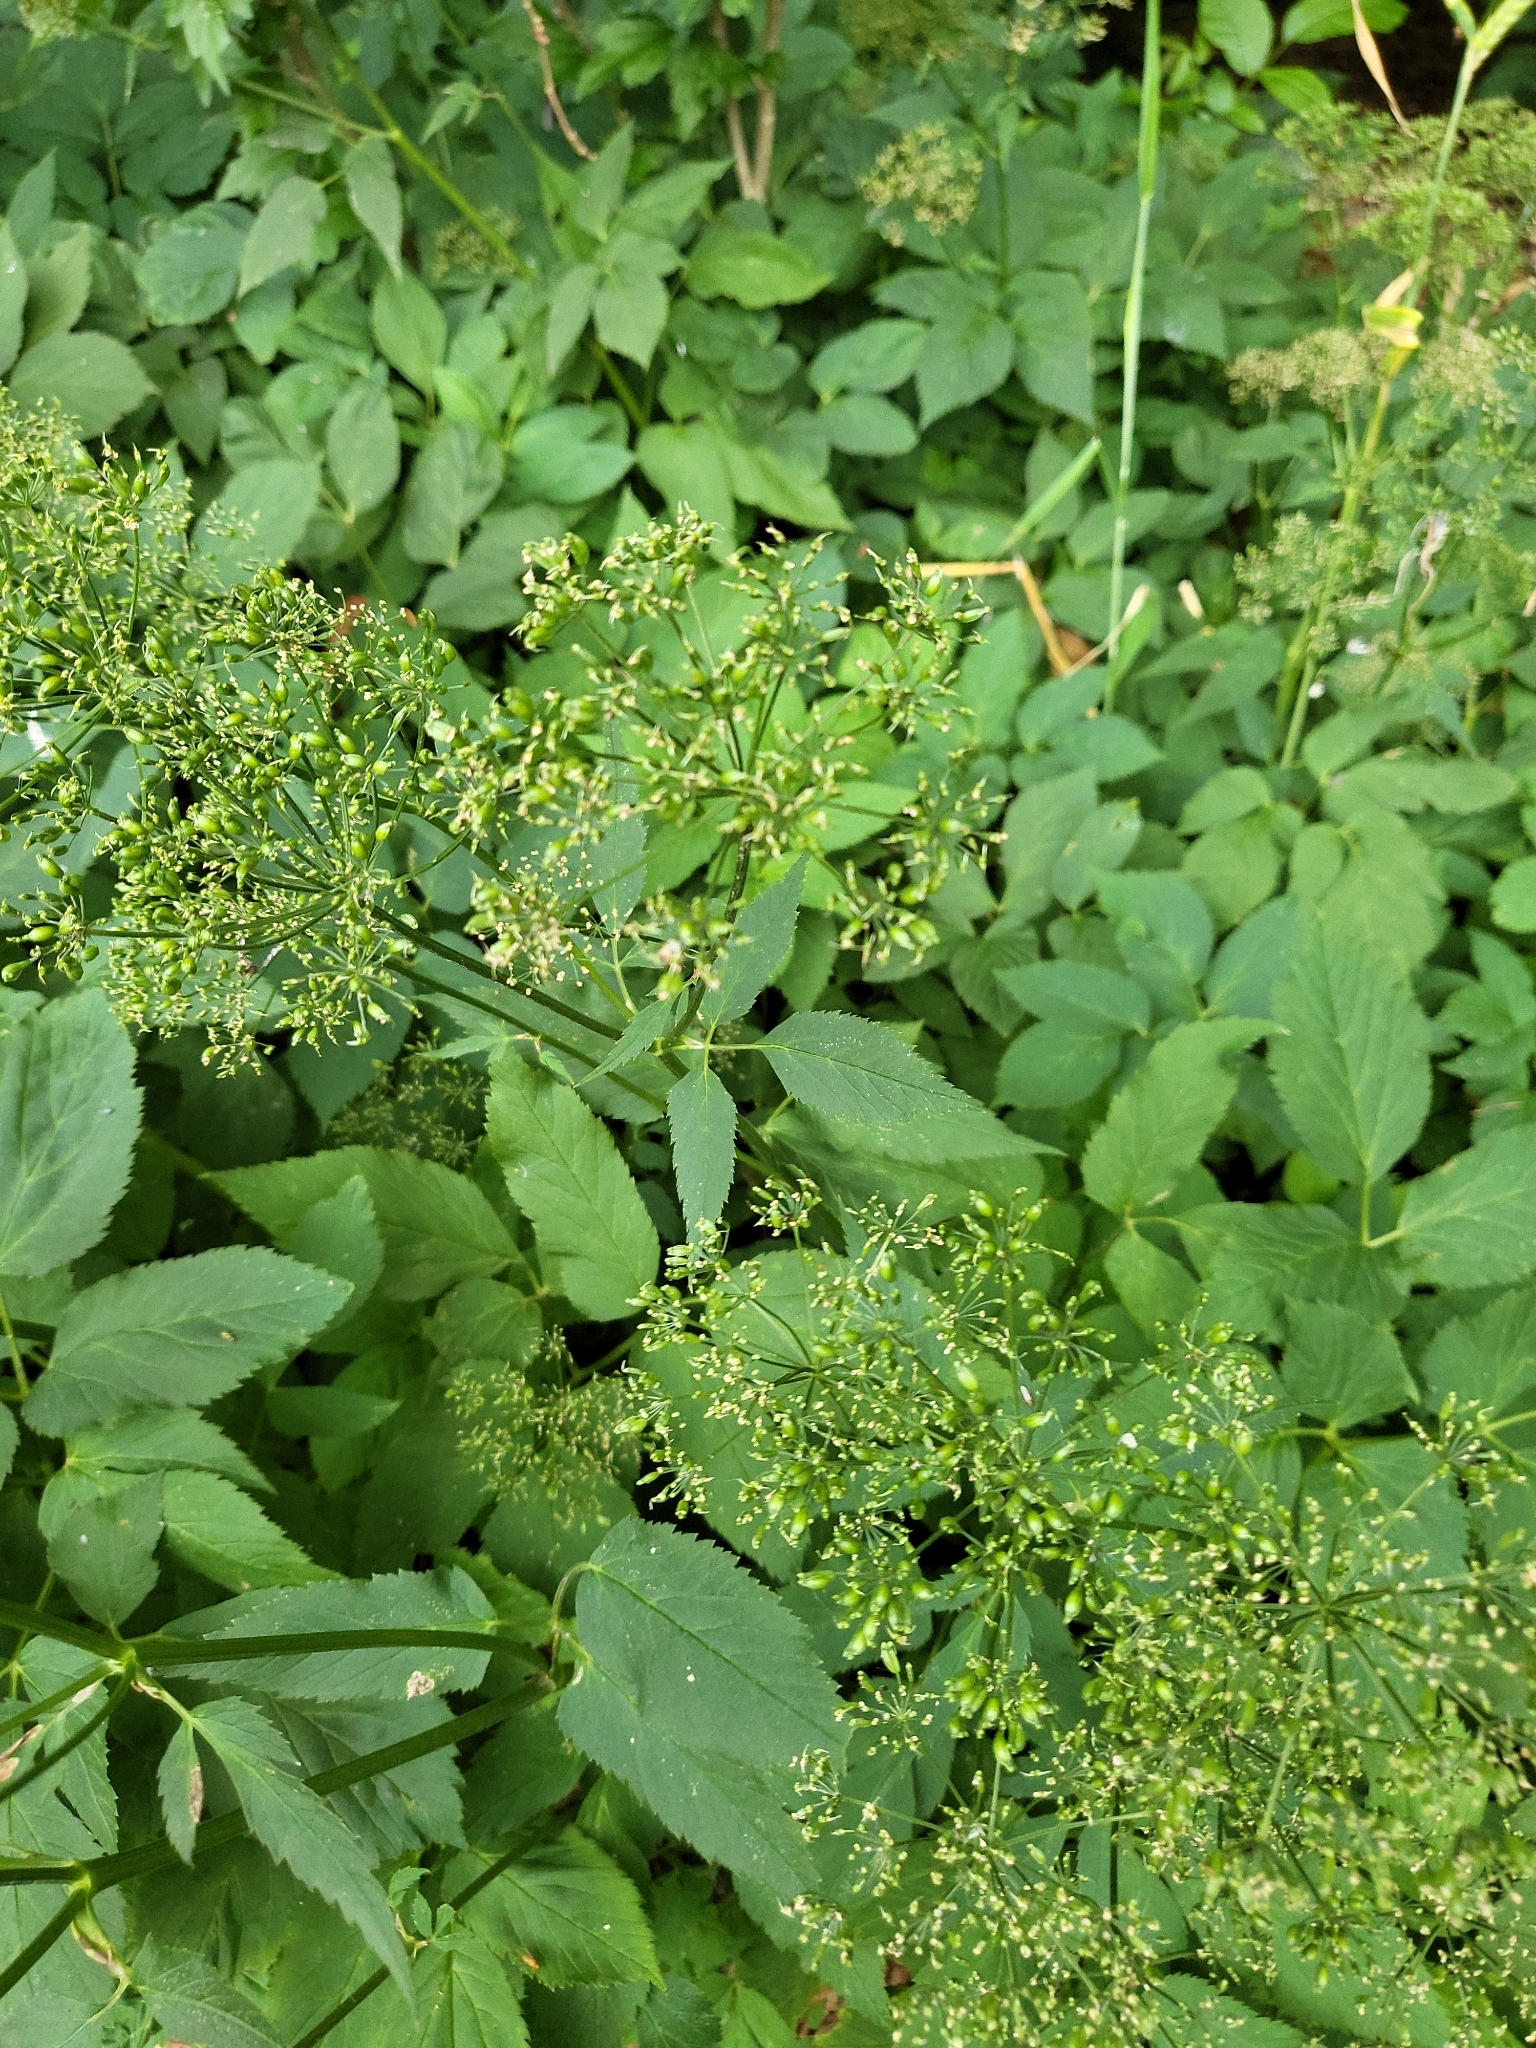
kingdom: Plantae
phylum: Tracheophyta
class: Magnoliopsida
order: Apiales
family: Apiaceae
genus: Aegopodium
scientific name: Aegopodium podagraria
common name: Ground-elder
